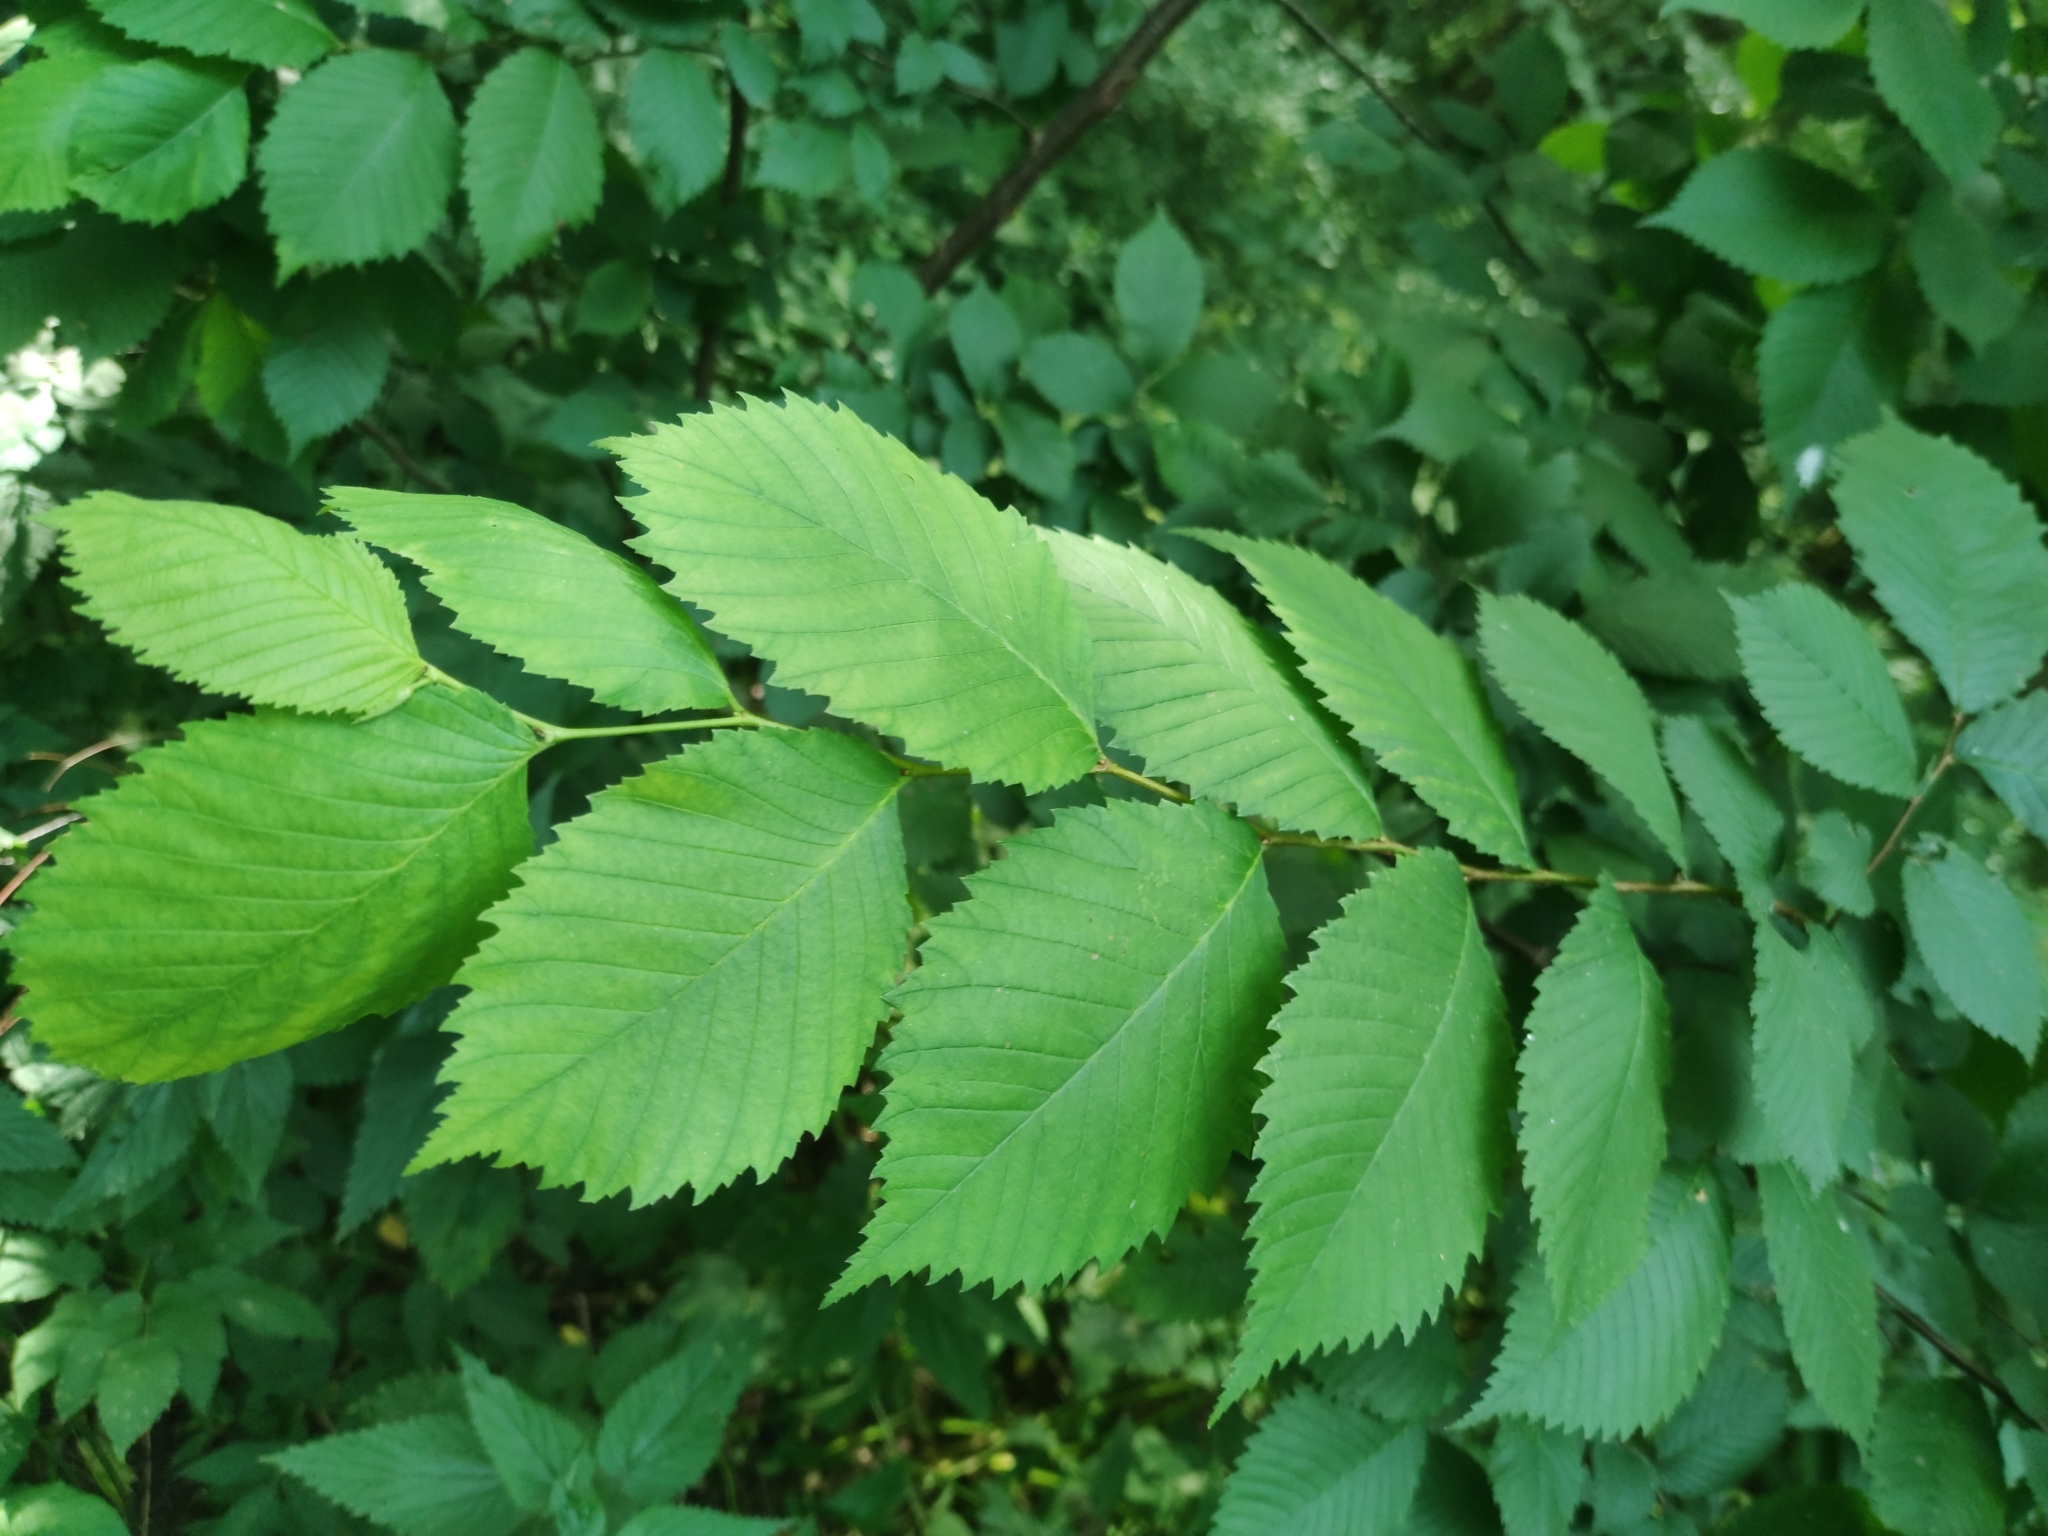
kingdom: Plantae
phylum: Tracheophyta
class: Magnoliopsida
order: Rosales
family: Ulmaceae
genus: Ulmus
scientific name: Ulmus laevis
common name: European white-elm
